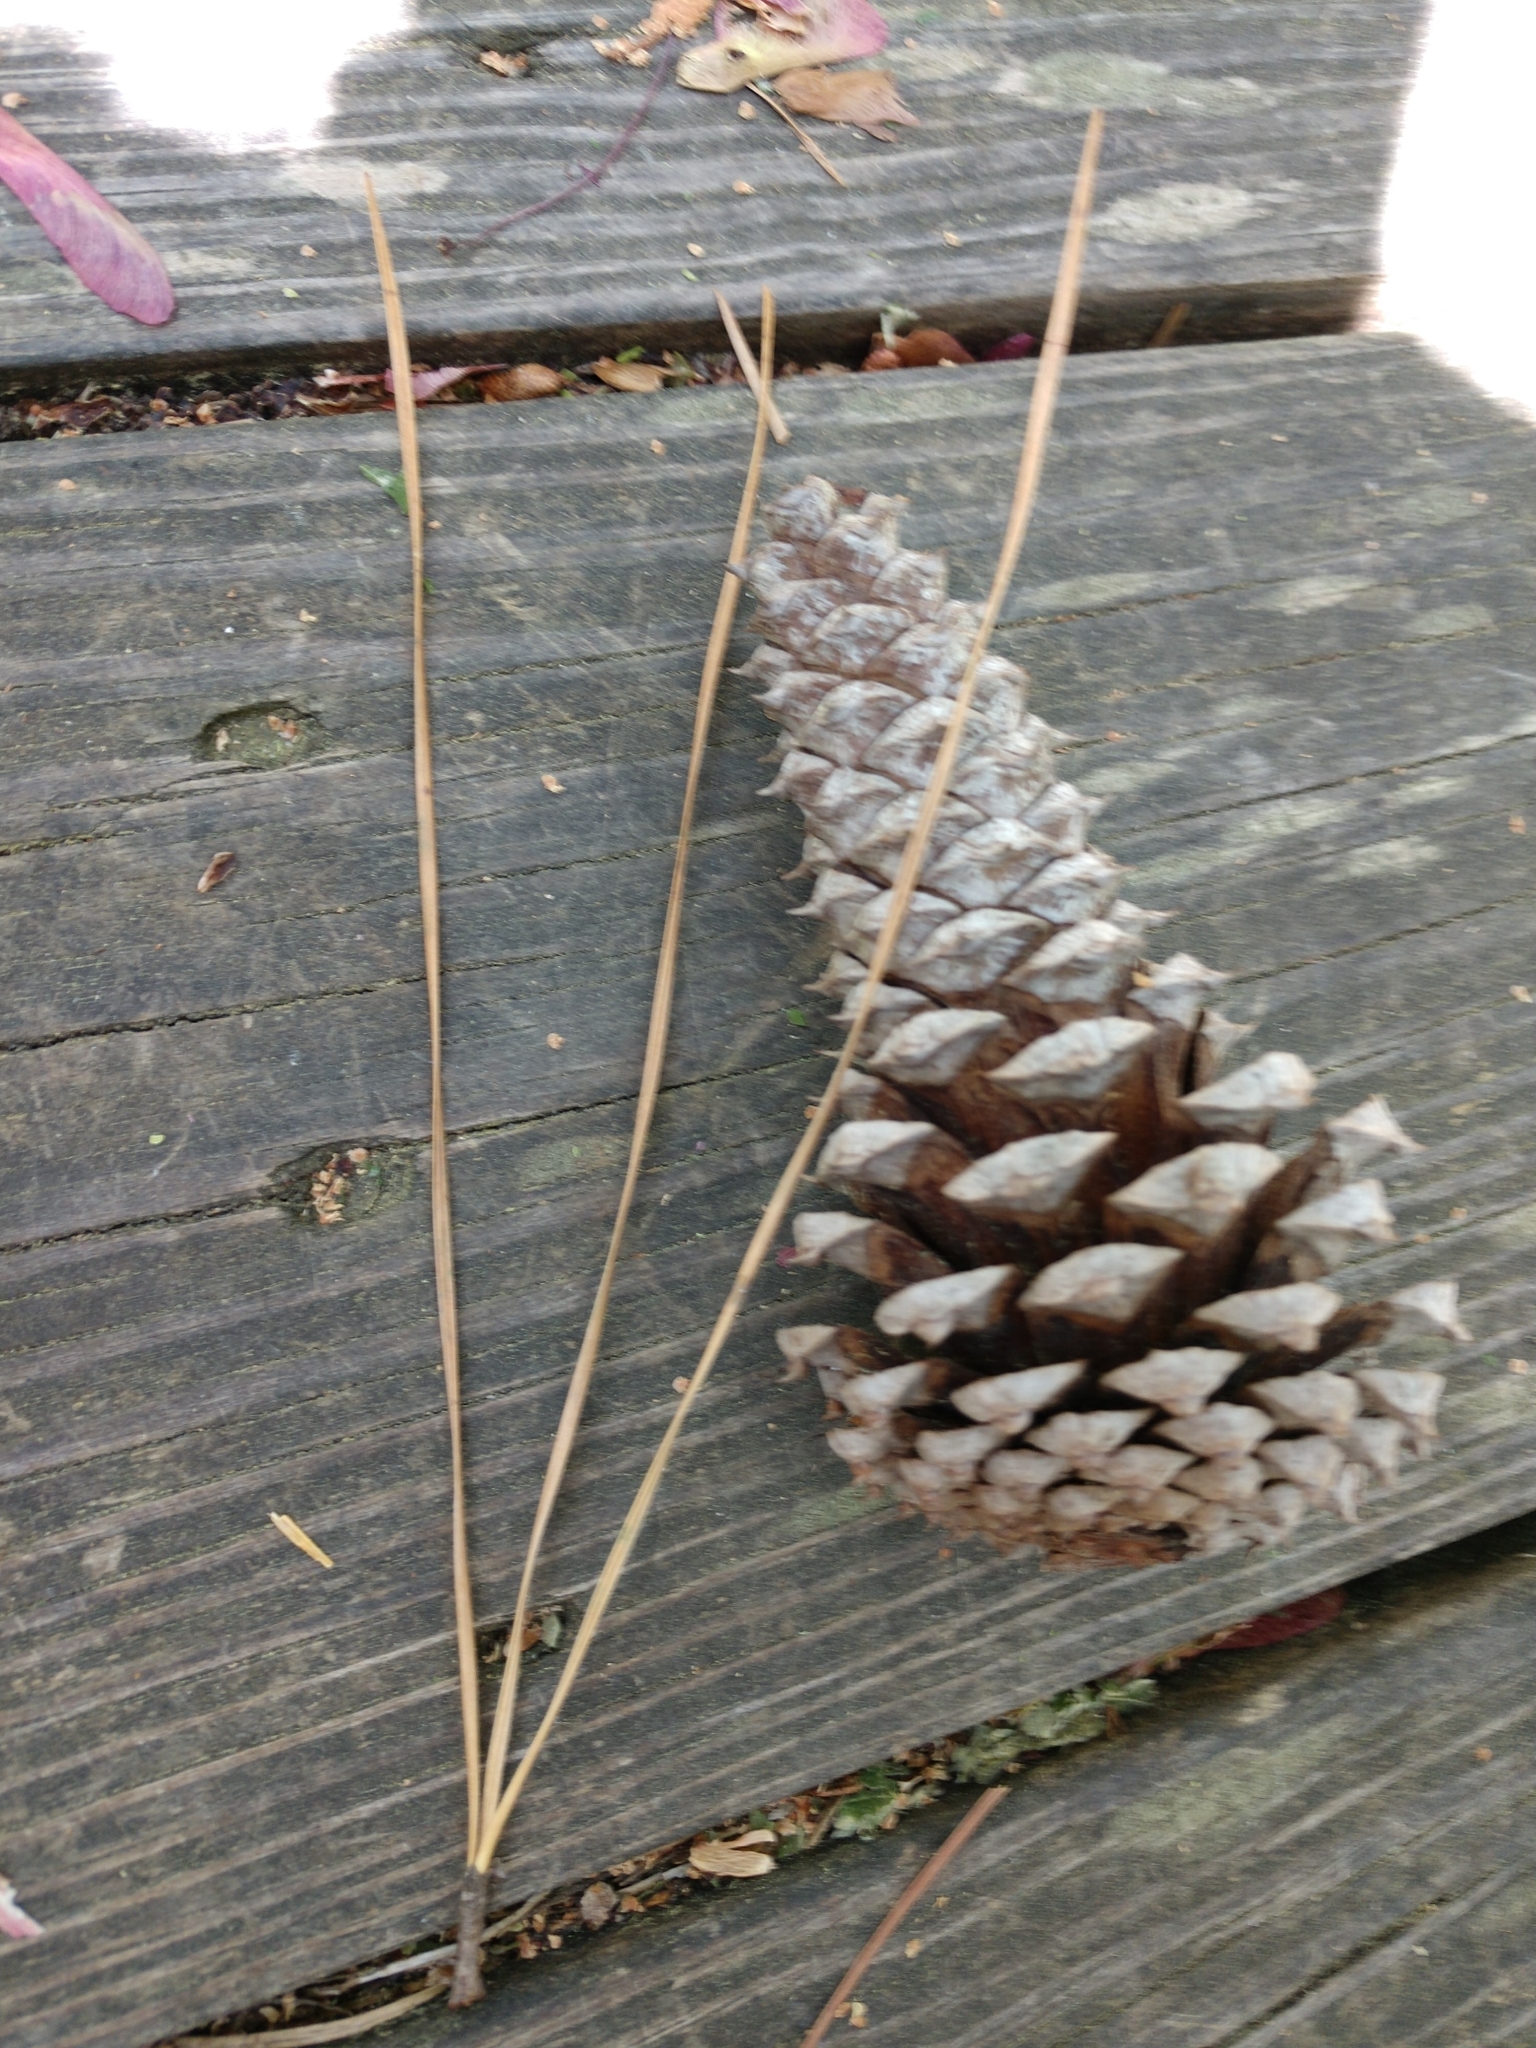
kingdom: Plantae
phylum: Tracheophyta
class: Pinopsida
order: Pinales
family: Pinaceae
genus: Pinus
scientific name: Pinus taeda
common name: Loblolly pine
